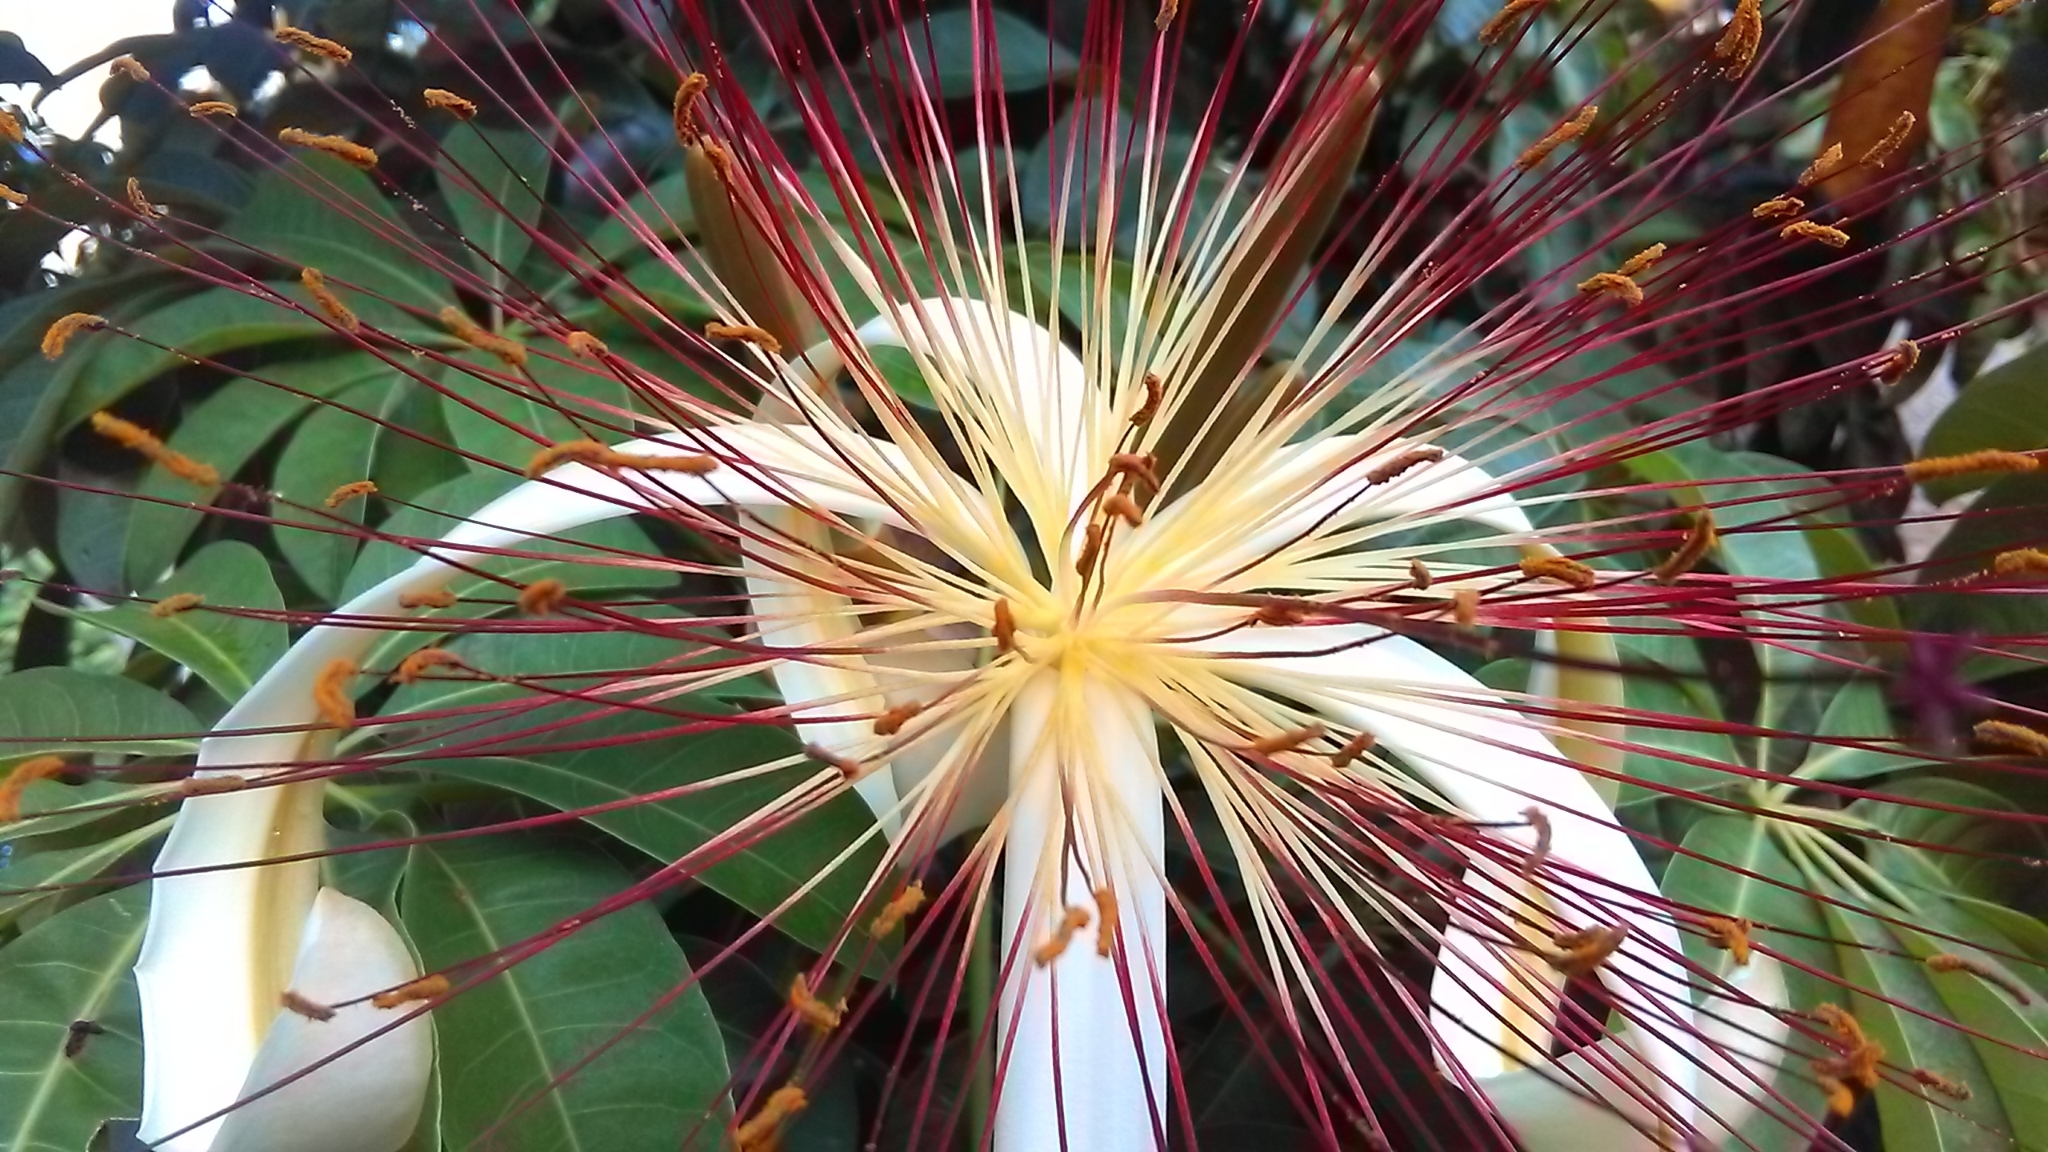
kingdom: Plantae
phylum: Tracheophyta
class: Magnoliopsida
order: Malvales
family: Malvaceae
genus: Pachira
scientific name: Pachira aquatica
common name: Provision-tree
